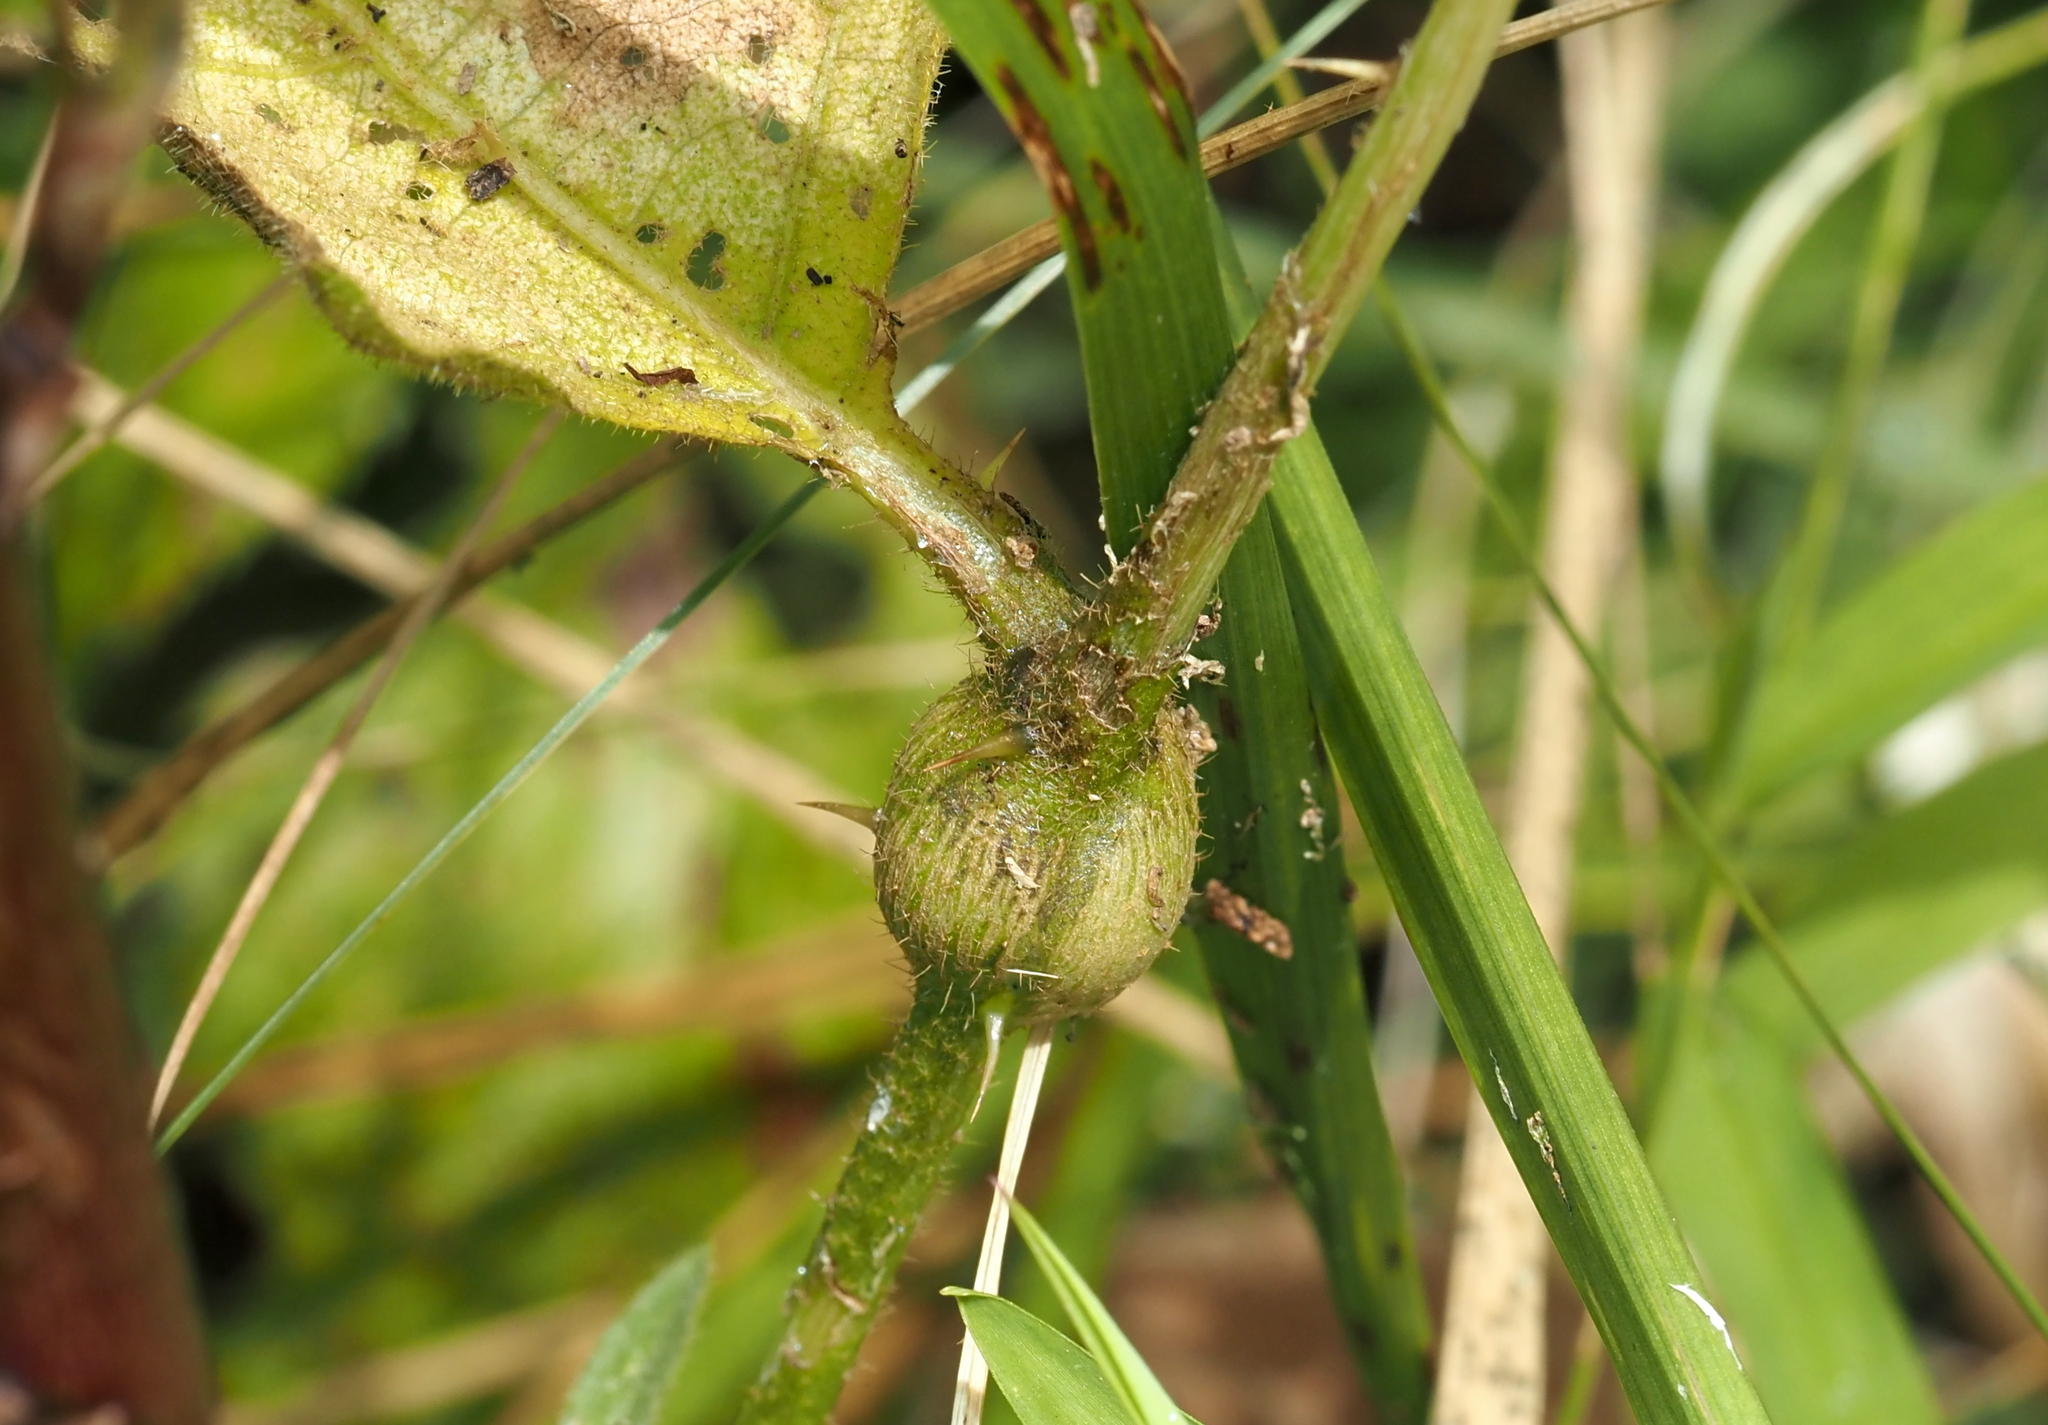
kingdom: Animalia
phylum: Arthropoda
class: Insecta
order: Diptera
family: Cecidomyiidae
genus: Lasioptera
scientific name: Lasioptera solani
